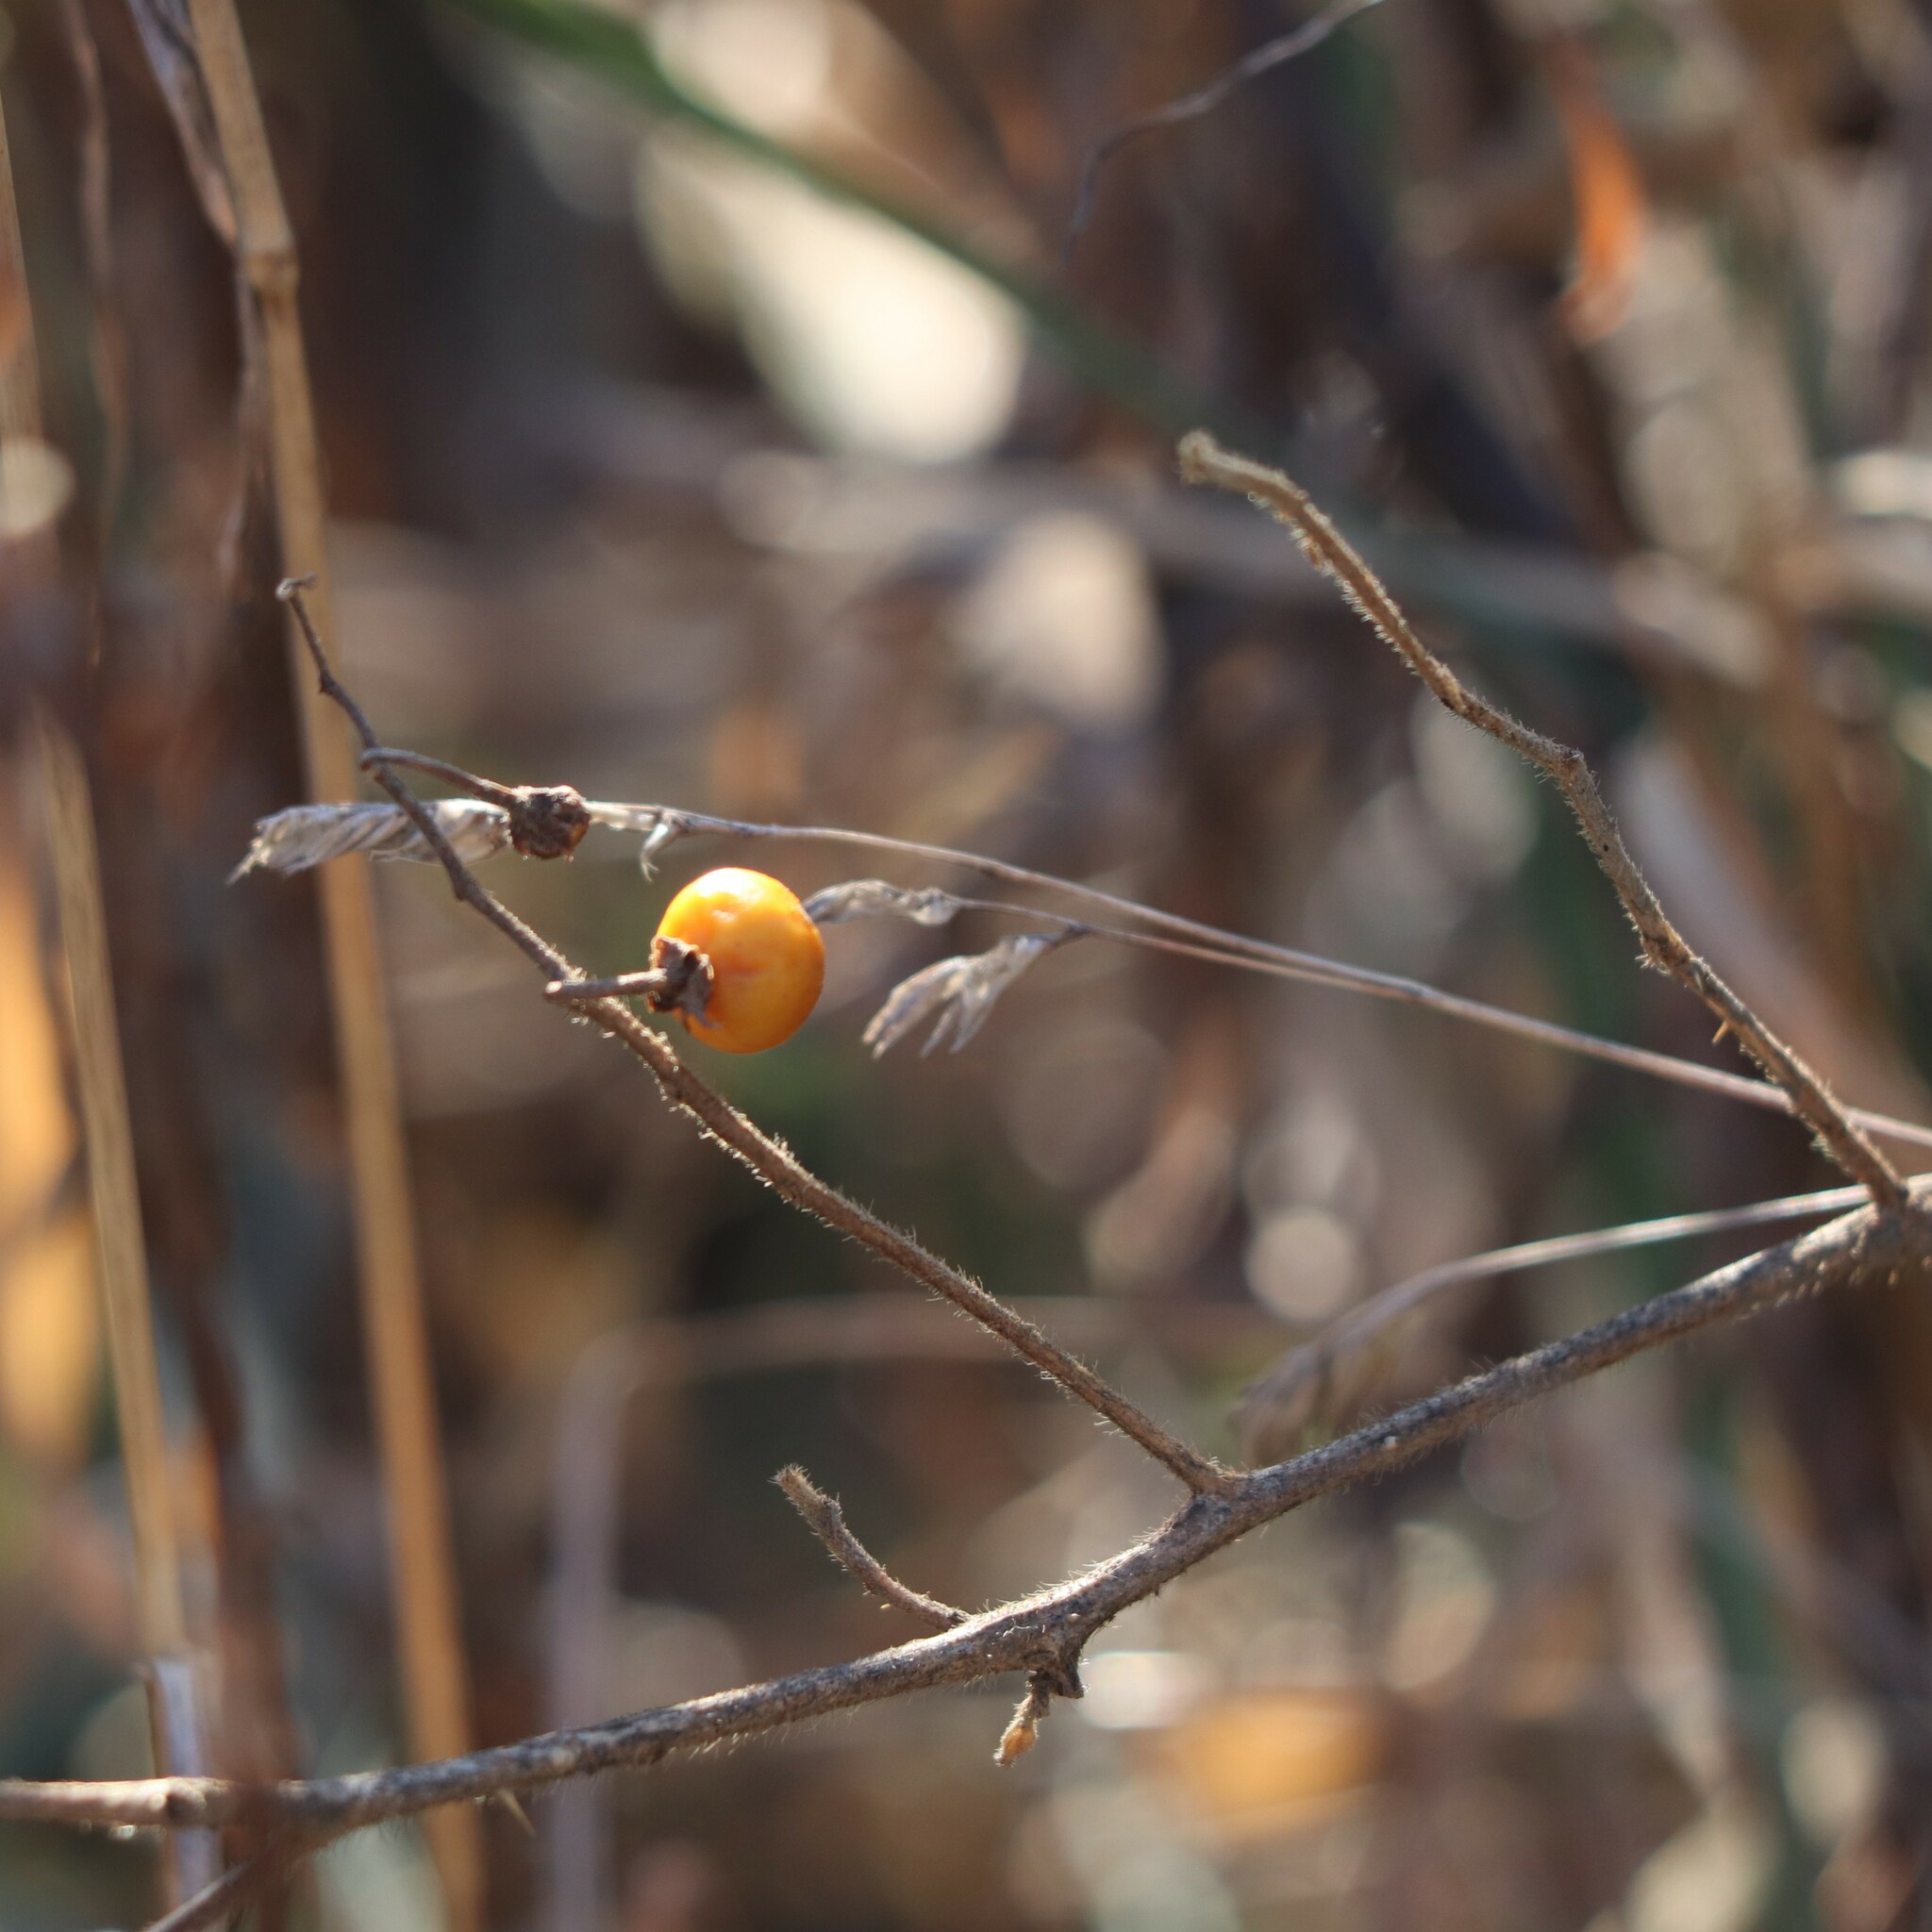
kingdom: Plantae
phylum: Tracheophyta
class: Magnoliopsida
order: Solanales
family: Solanaceae
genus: Solanum
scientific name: Solanum carolinense
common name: Horse-nettle
